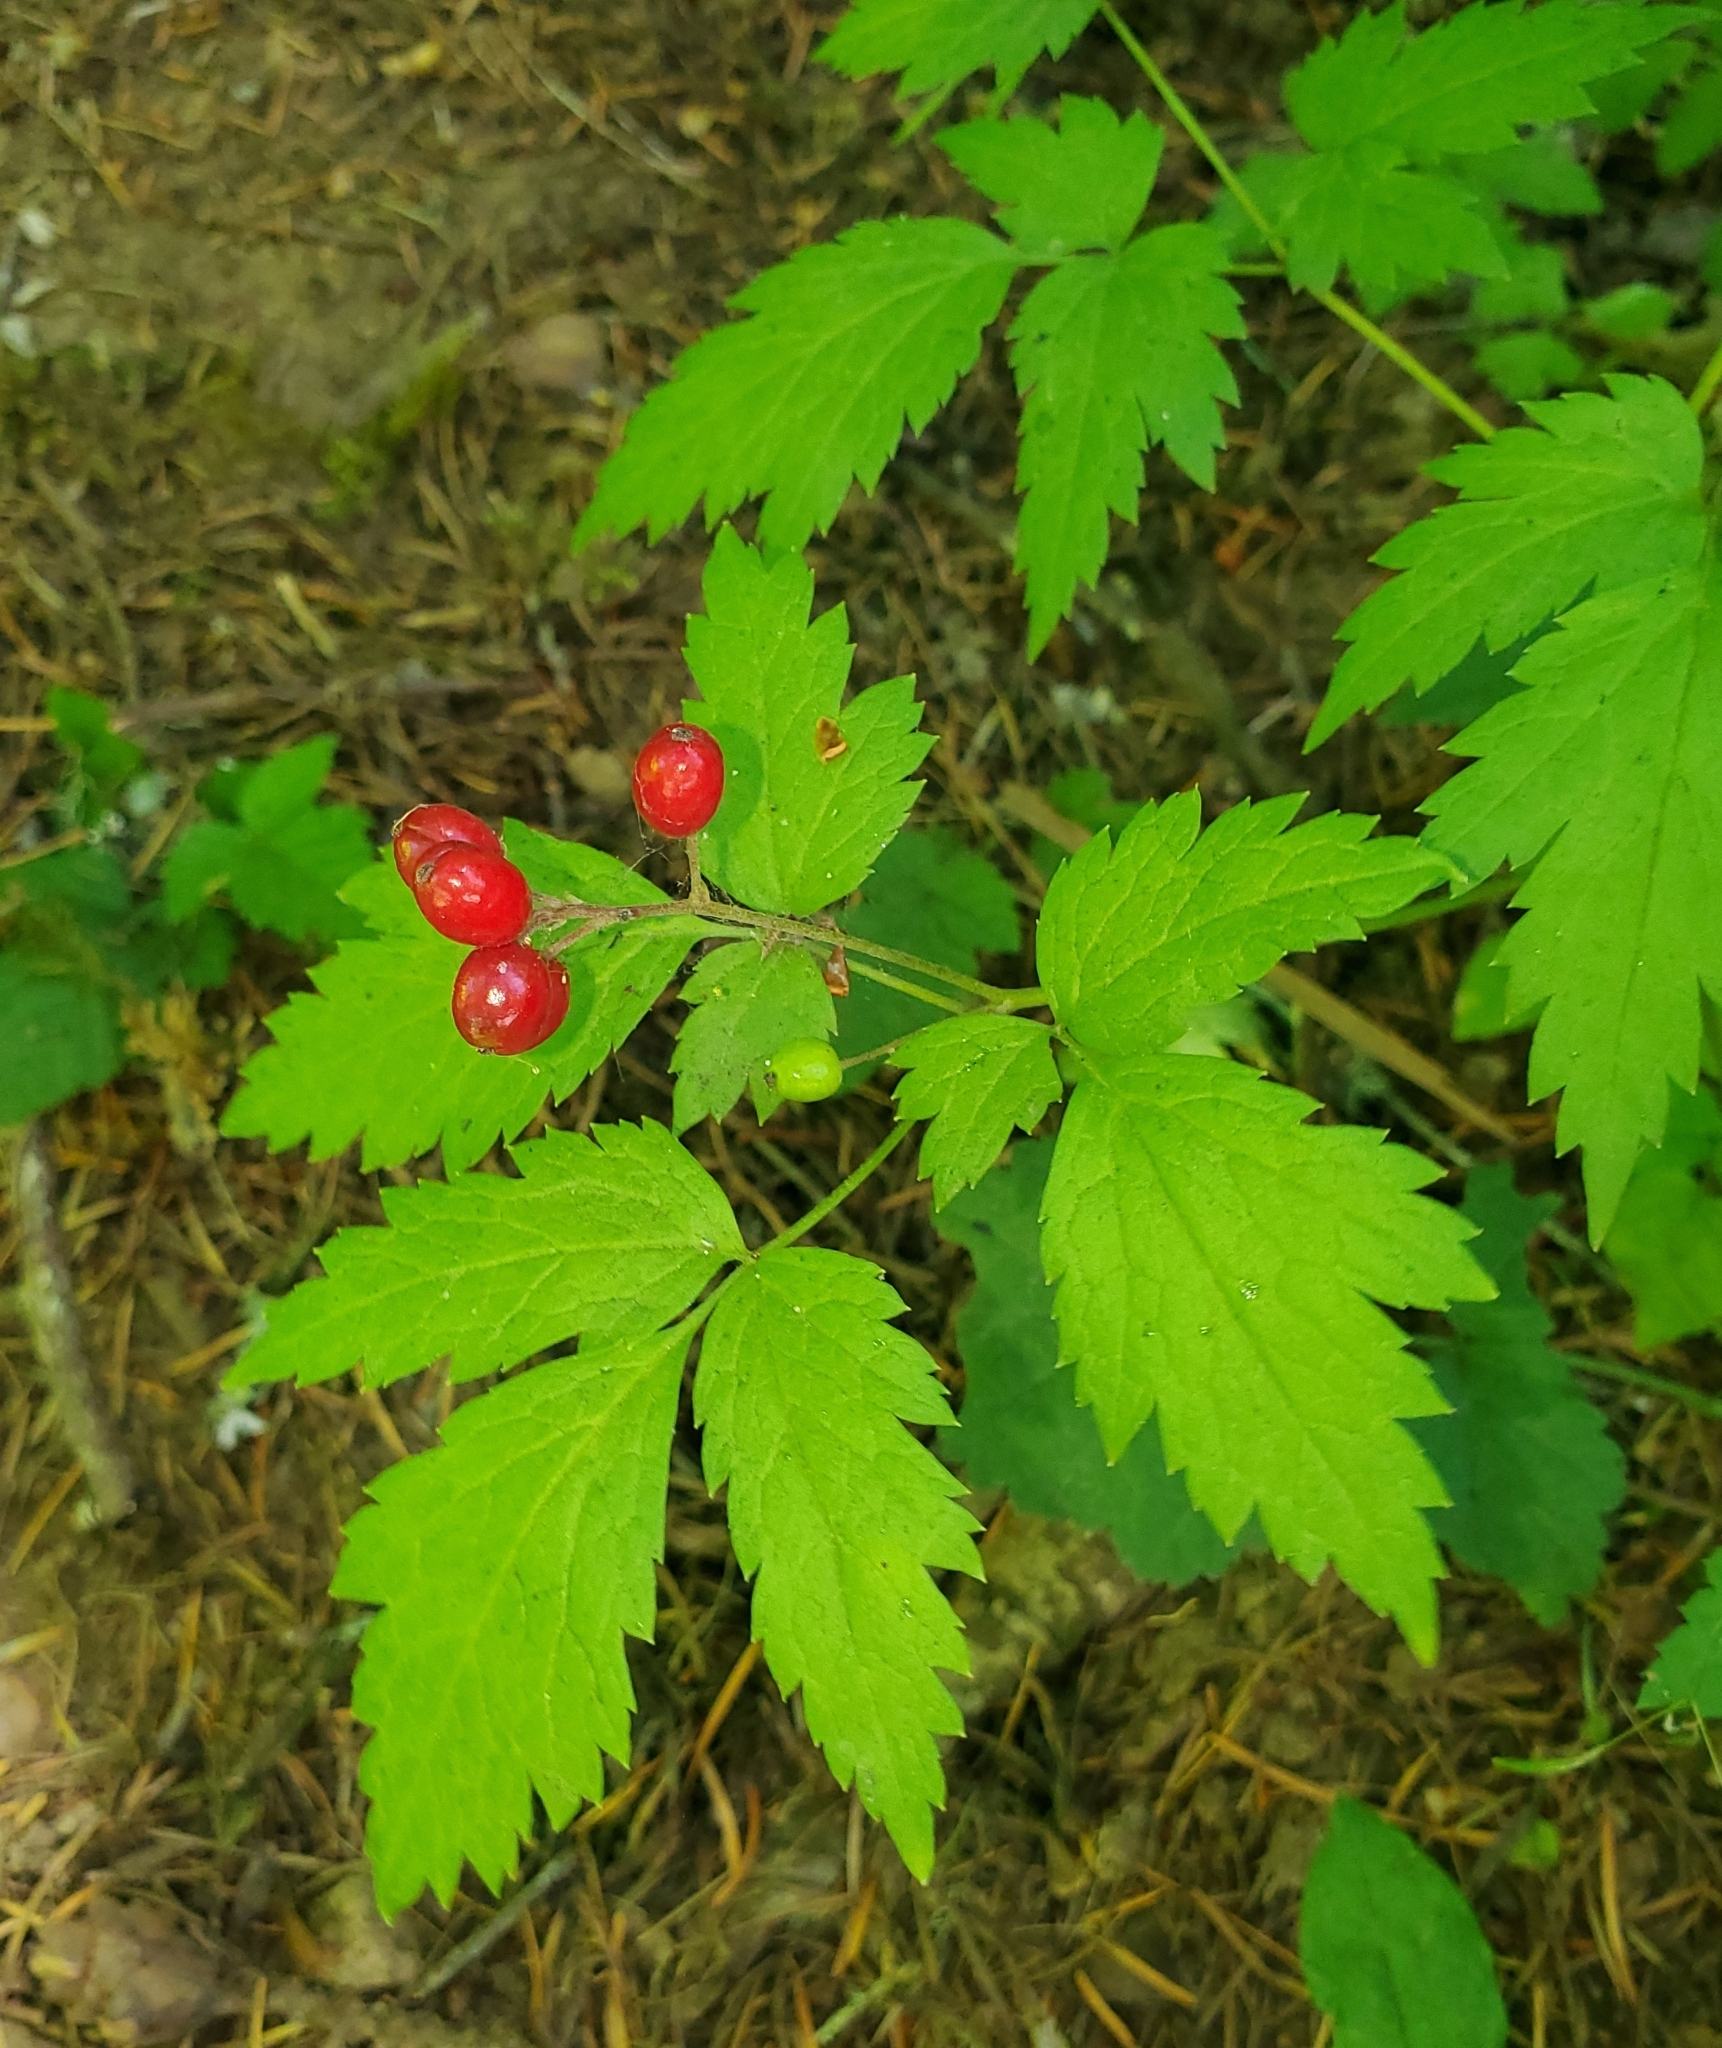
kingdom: Plantae
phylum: Tracheophyta
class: Magnoliopsida
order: Ranunculales
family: Ranunculaceae
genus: Actaea
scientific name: Actaea rubra
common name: Red baneberry
